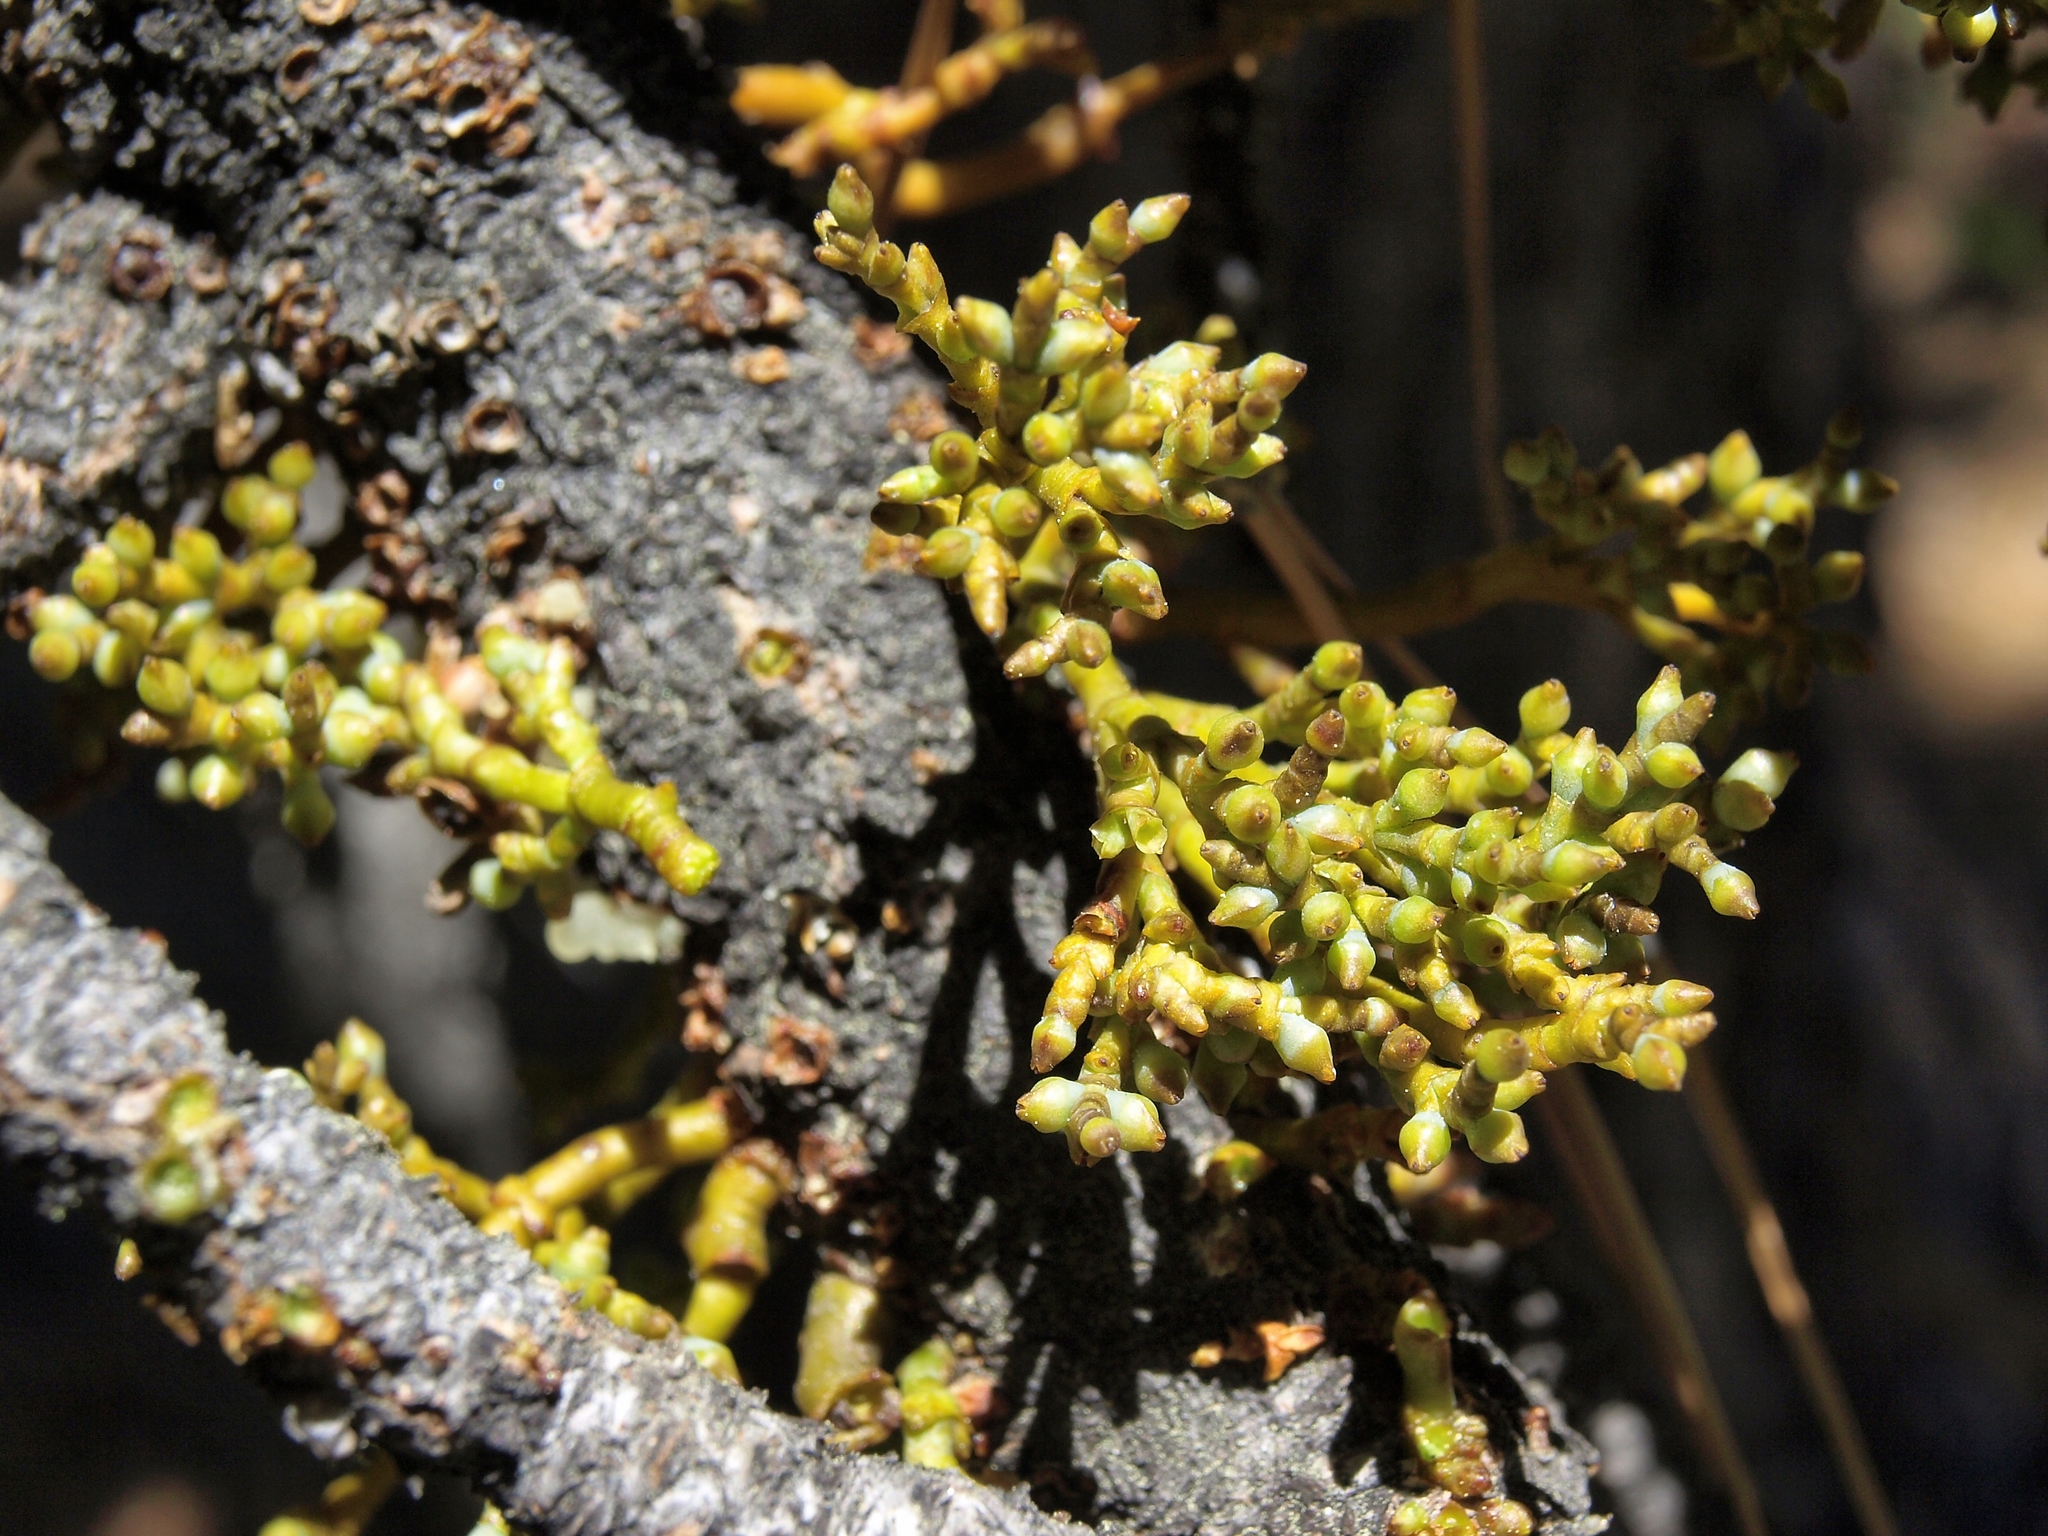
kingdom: Plantae
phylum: Tracheophyta
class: Magnoliopsida
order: Santalales
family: Viscaceae
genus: Arceuthobium
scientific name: Arceuthobium campylopodum
